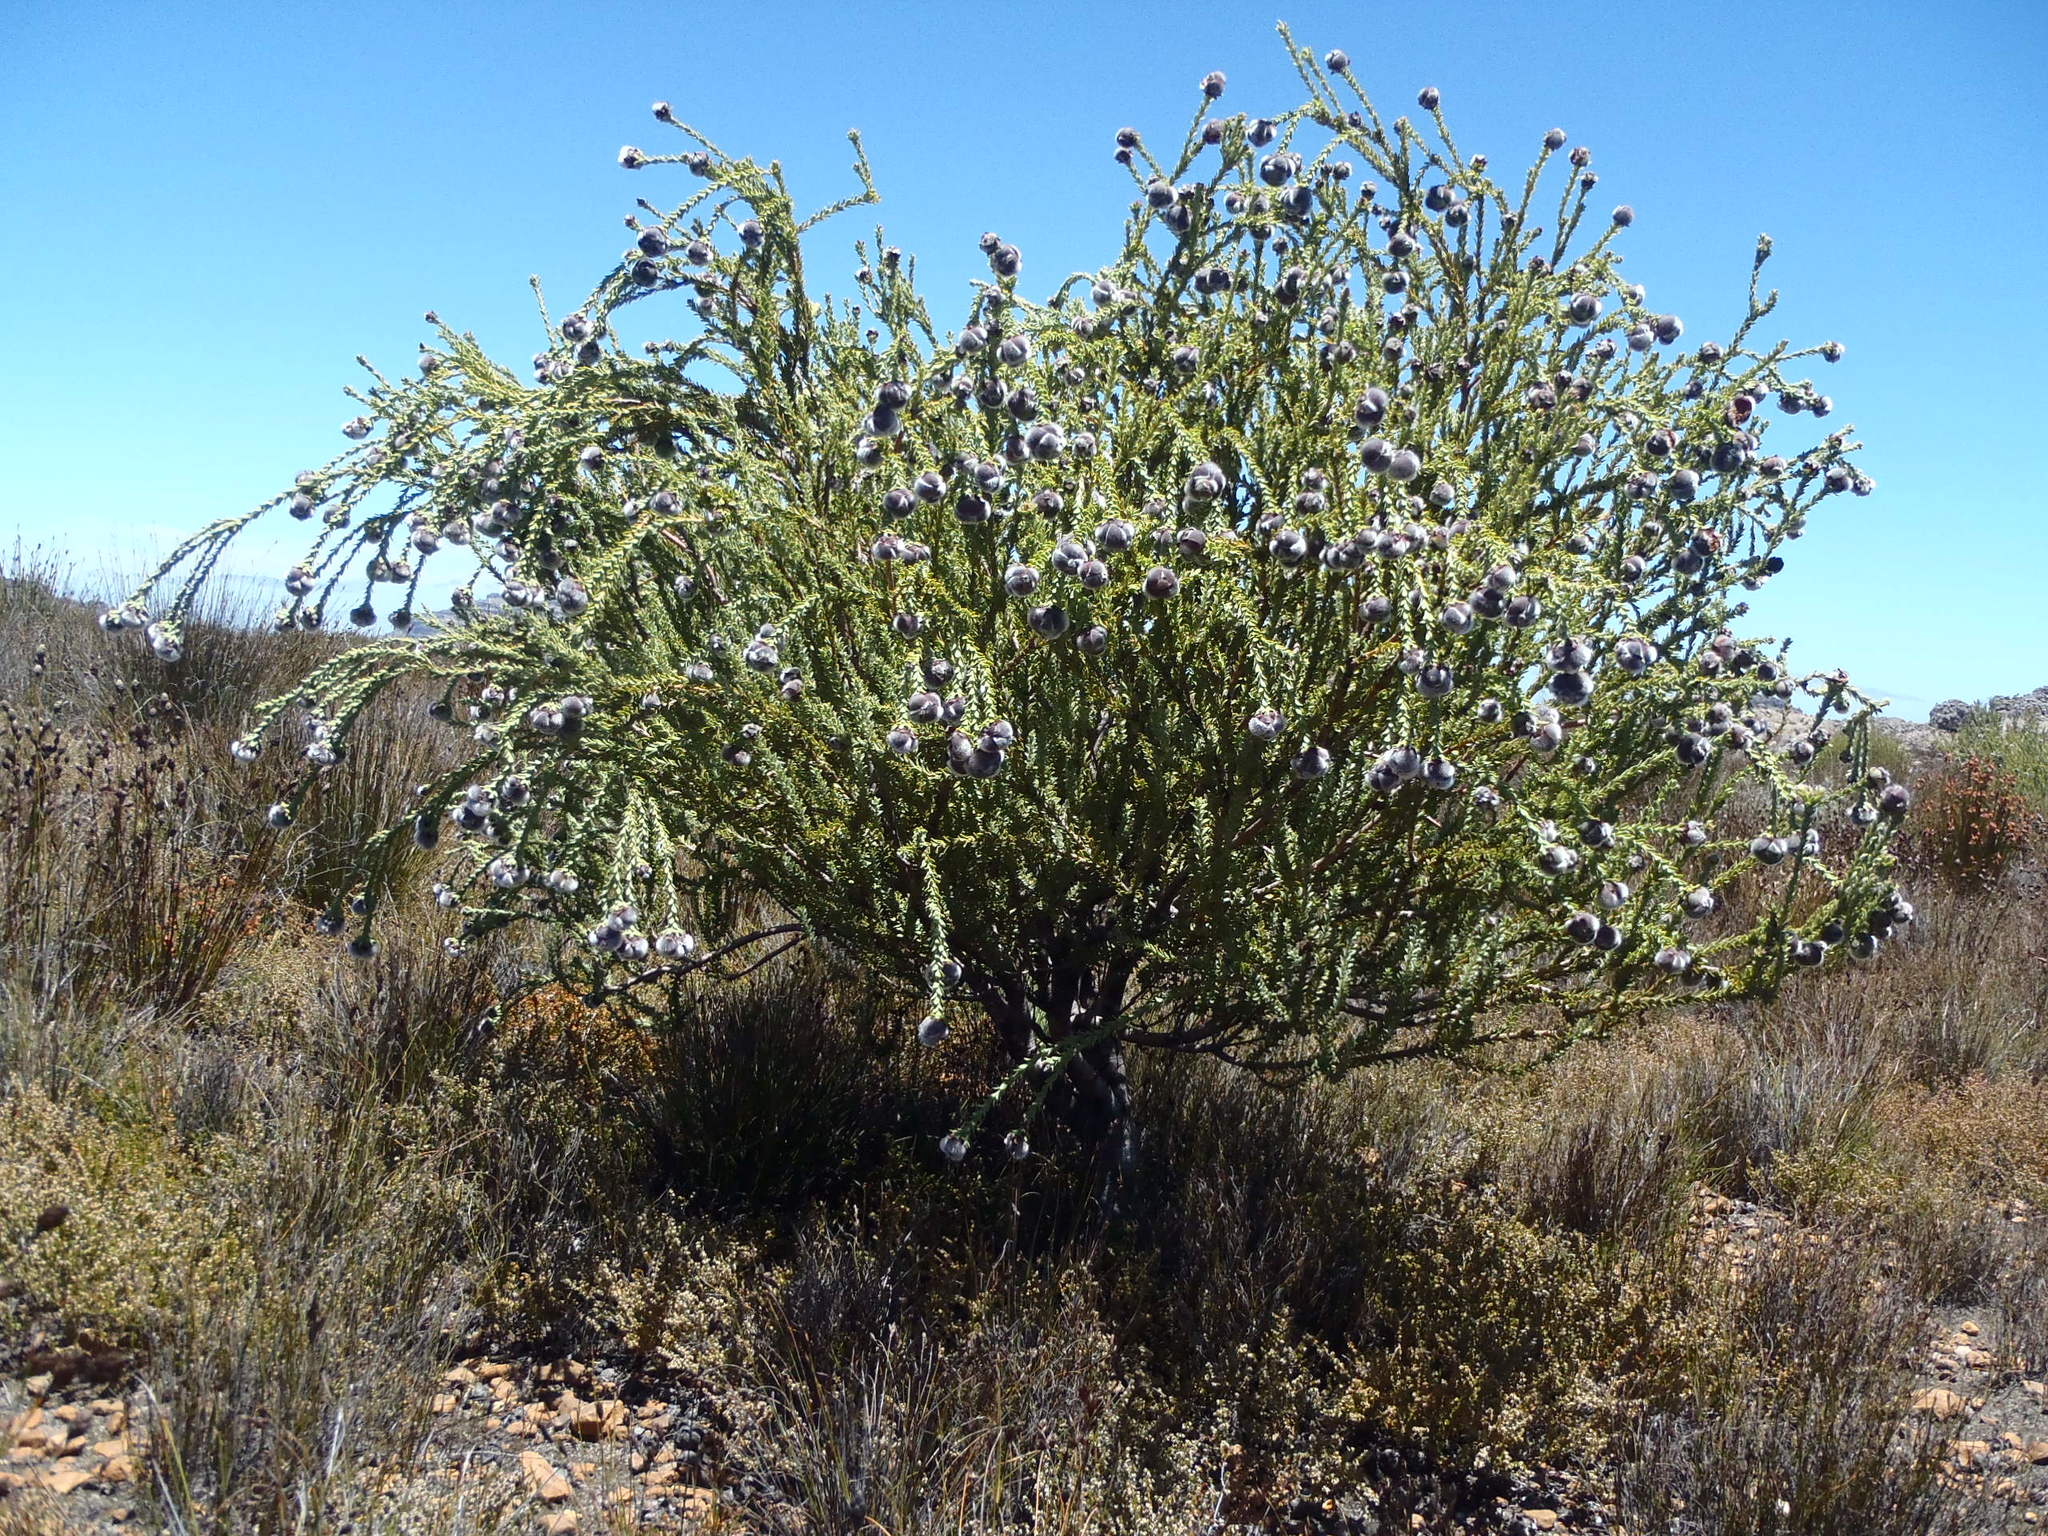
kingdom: Plantae
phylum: Tracheophyta
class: Magnoliopsida
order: Proteales
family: Proteaceae
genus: Leucadendron
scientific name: Leucadendron dubium
